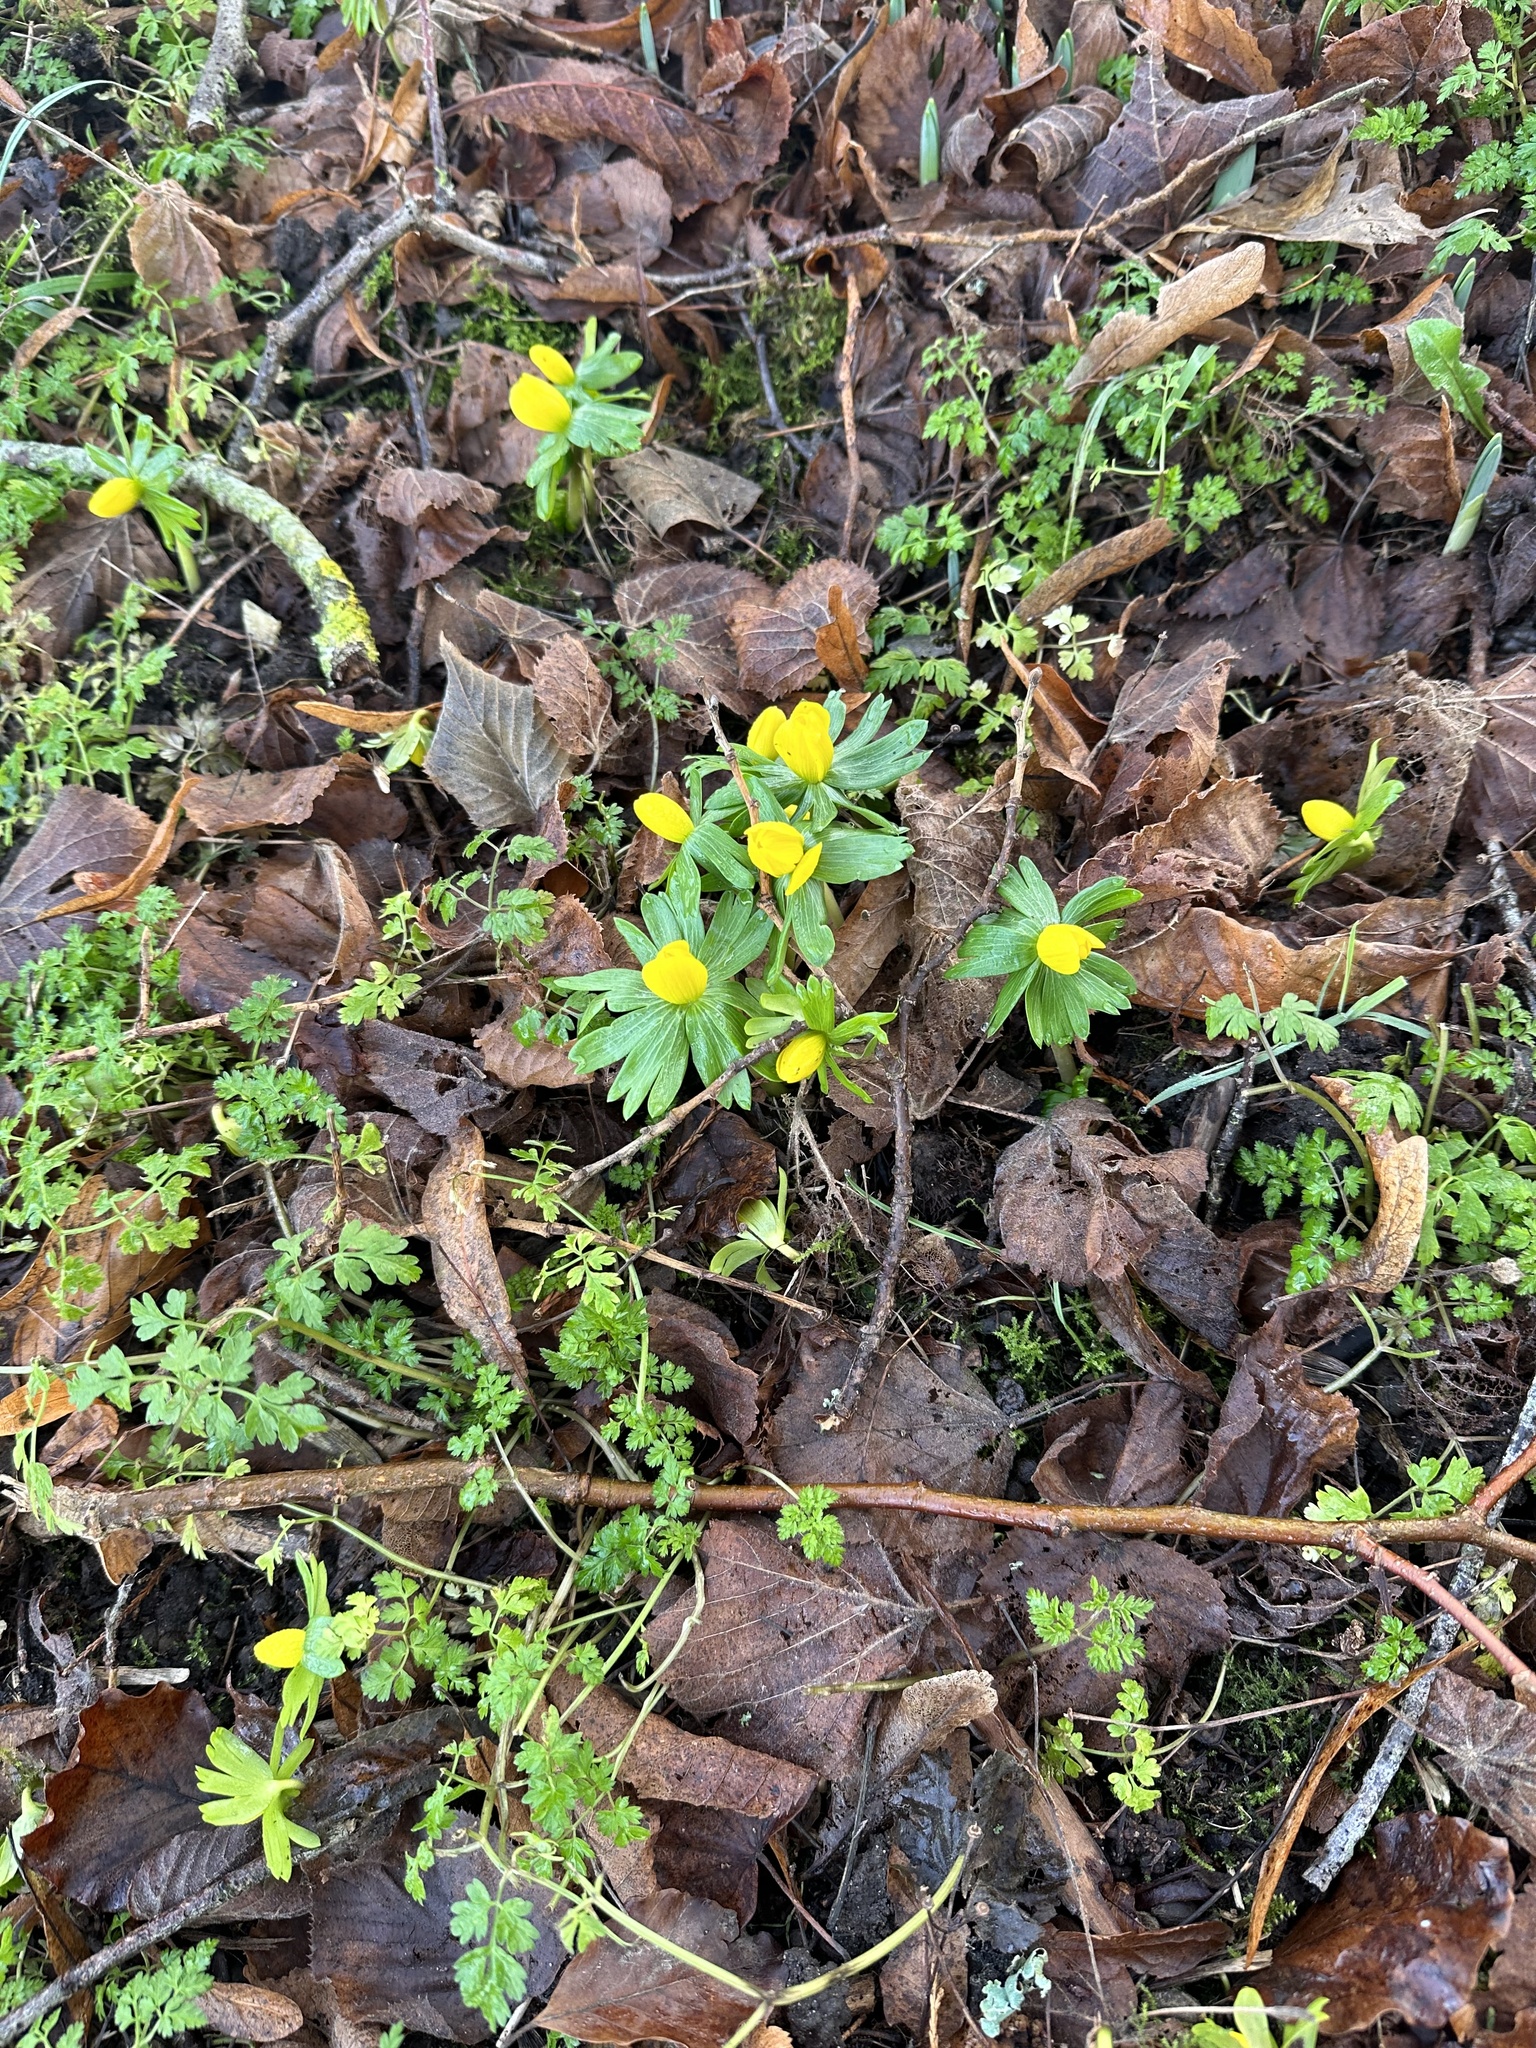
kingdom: Plantae
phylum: Tracheophyta
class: Magnoliopsida
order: Ranunculales
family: Ranunculaceae
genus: Eranthis
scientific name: Eranthis hyemalis
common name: Winter aconite
